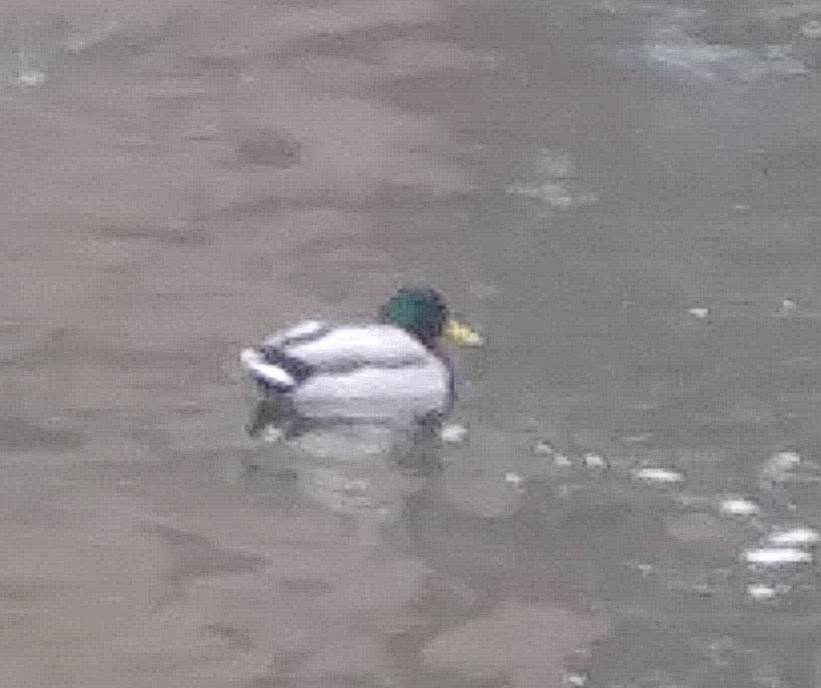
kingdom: Animalia
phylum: Chordata
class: Aves
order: Anseriformes
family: Anatidae
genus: Anas
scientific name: Anas platyrhynchos
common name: Mallard
